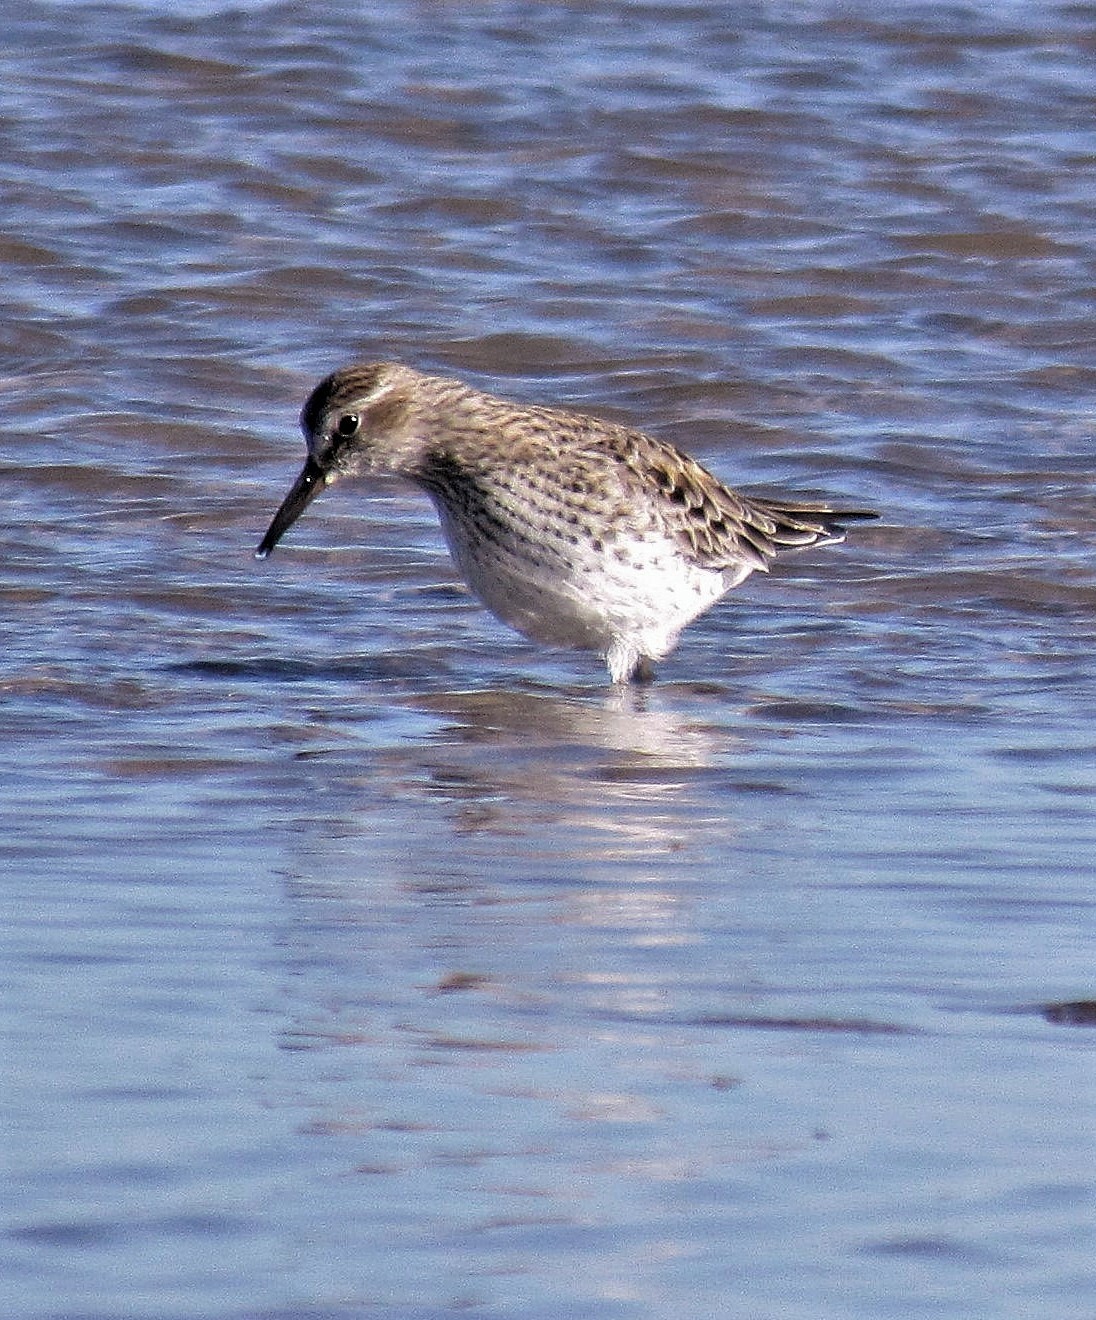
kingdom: Animalia
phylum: Chordata
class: Aves
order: Charadriiformes
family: Scolopacidae
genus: Calidris
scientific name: Calidris fuscicollis
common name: White-rumped sandpiper
